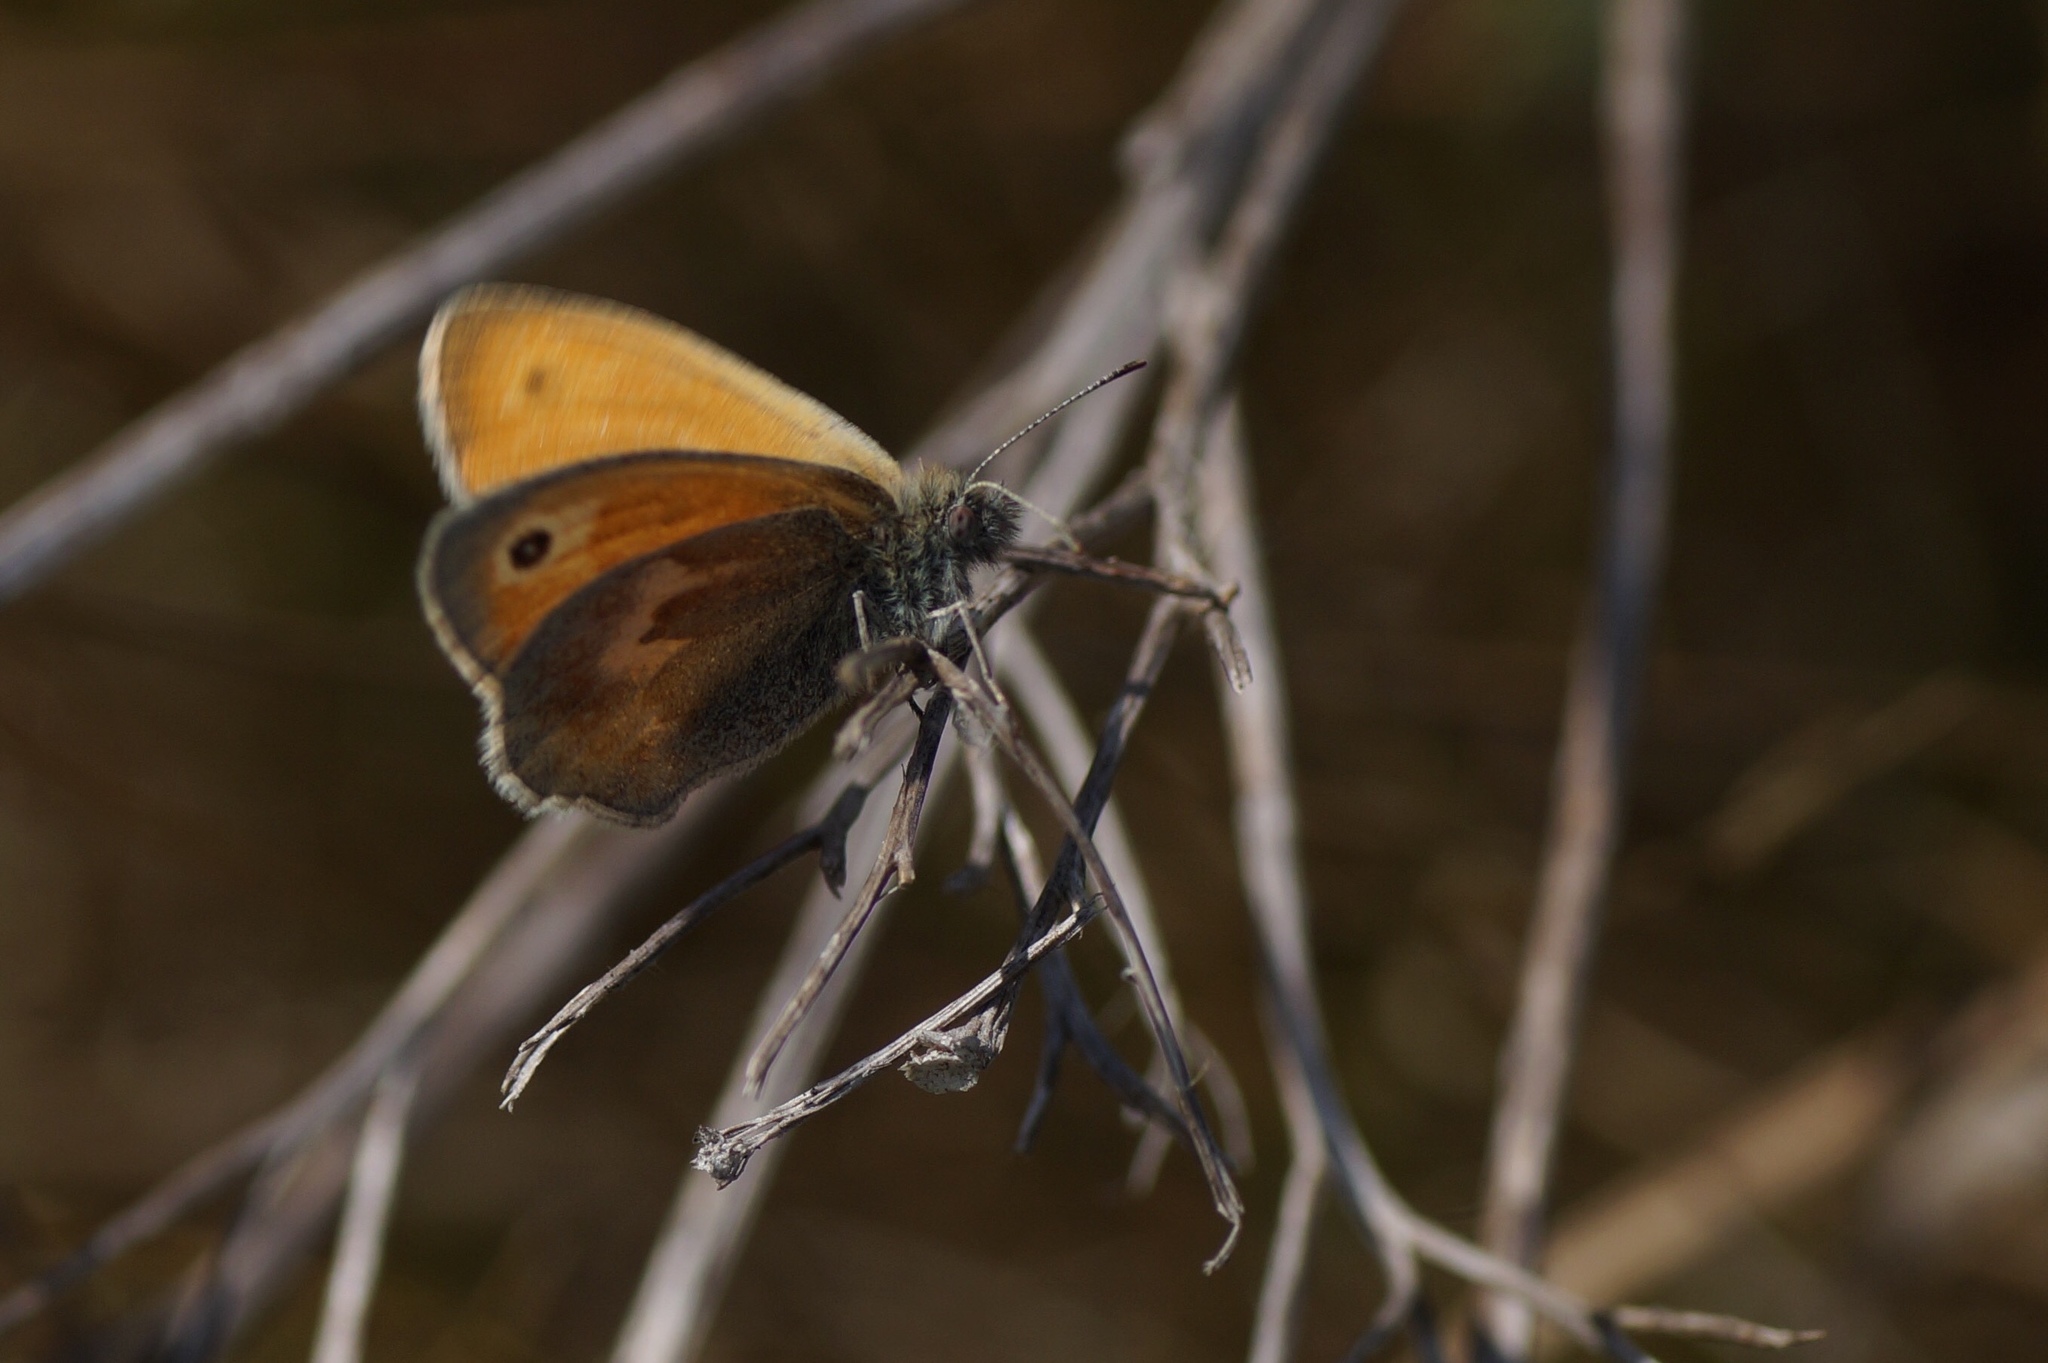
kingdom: Animalia
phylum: Arthropoda
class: Insecta
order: Lepidoptera
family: Nymphalidae
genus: Coenonympha
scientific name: Coenonympha pamphilus
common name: Small heath
